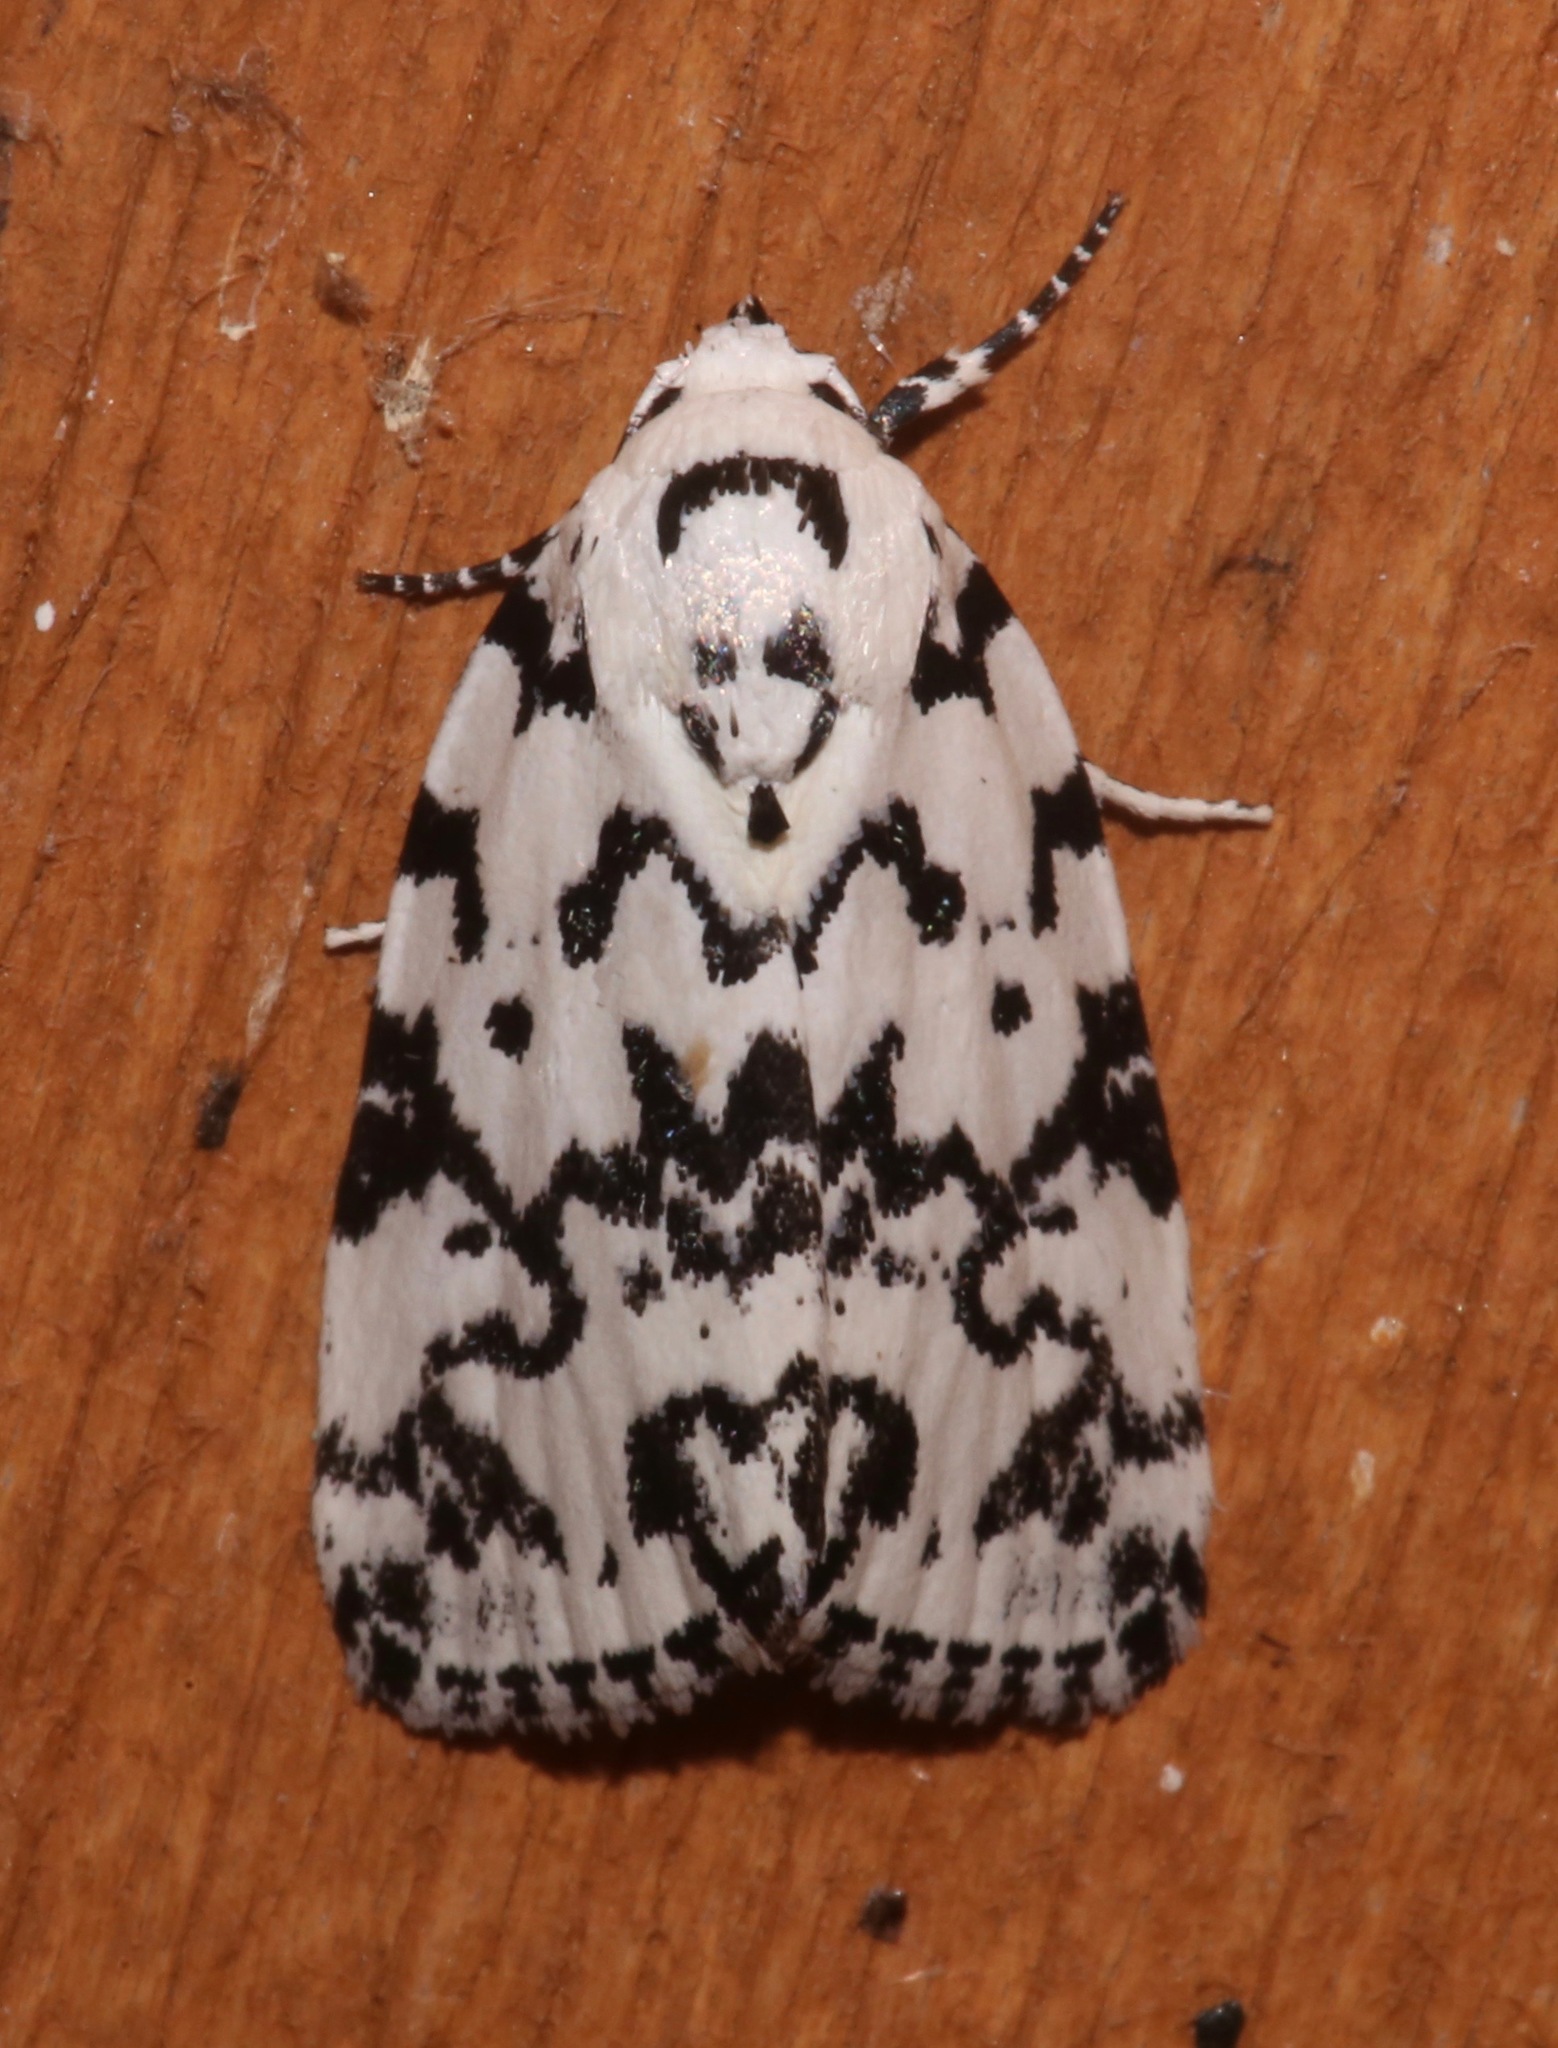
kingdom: Animalia
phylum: Arthropoda
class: Insecta
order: Lepidoptera
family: Noctuidae
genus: Polygrammate
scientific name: Polygrammate hebraeicum
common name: Hebrew moth
